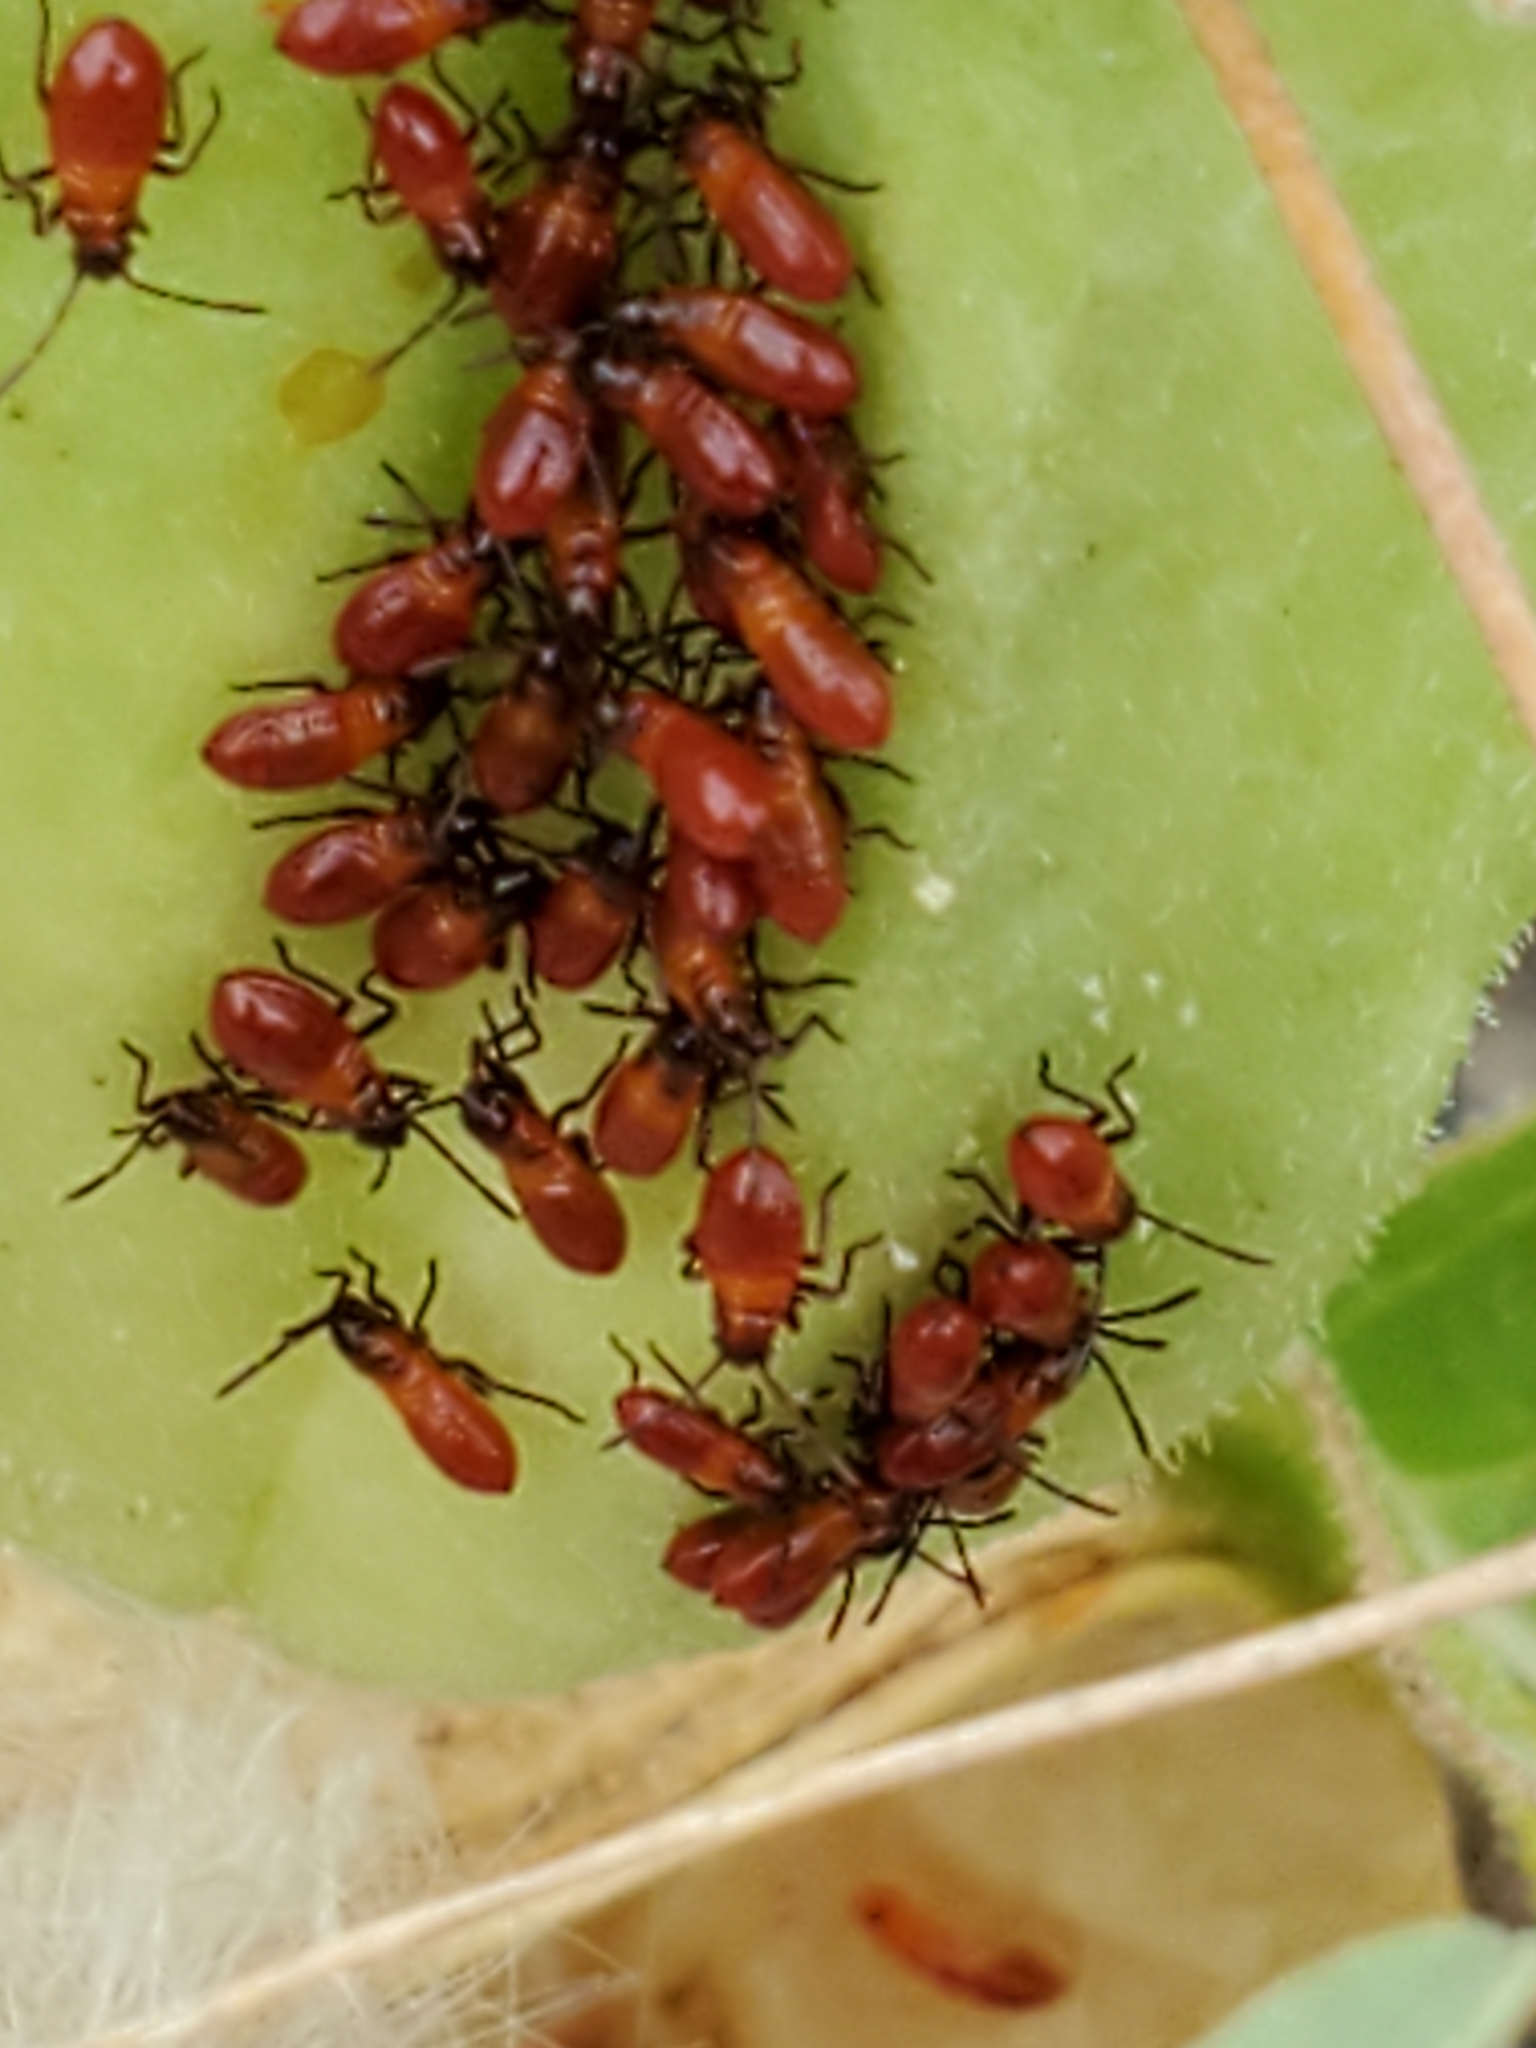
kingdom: Animalia
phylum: Arthropoda
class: Insecta
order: Hemiptera
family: Lygaeidae
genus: Oncopeltus
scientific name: Oncopeltus fasciatus
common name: Large milkweed bug
